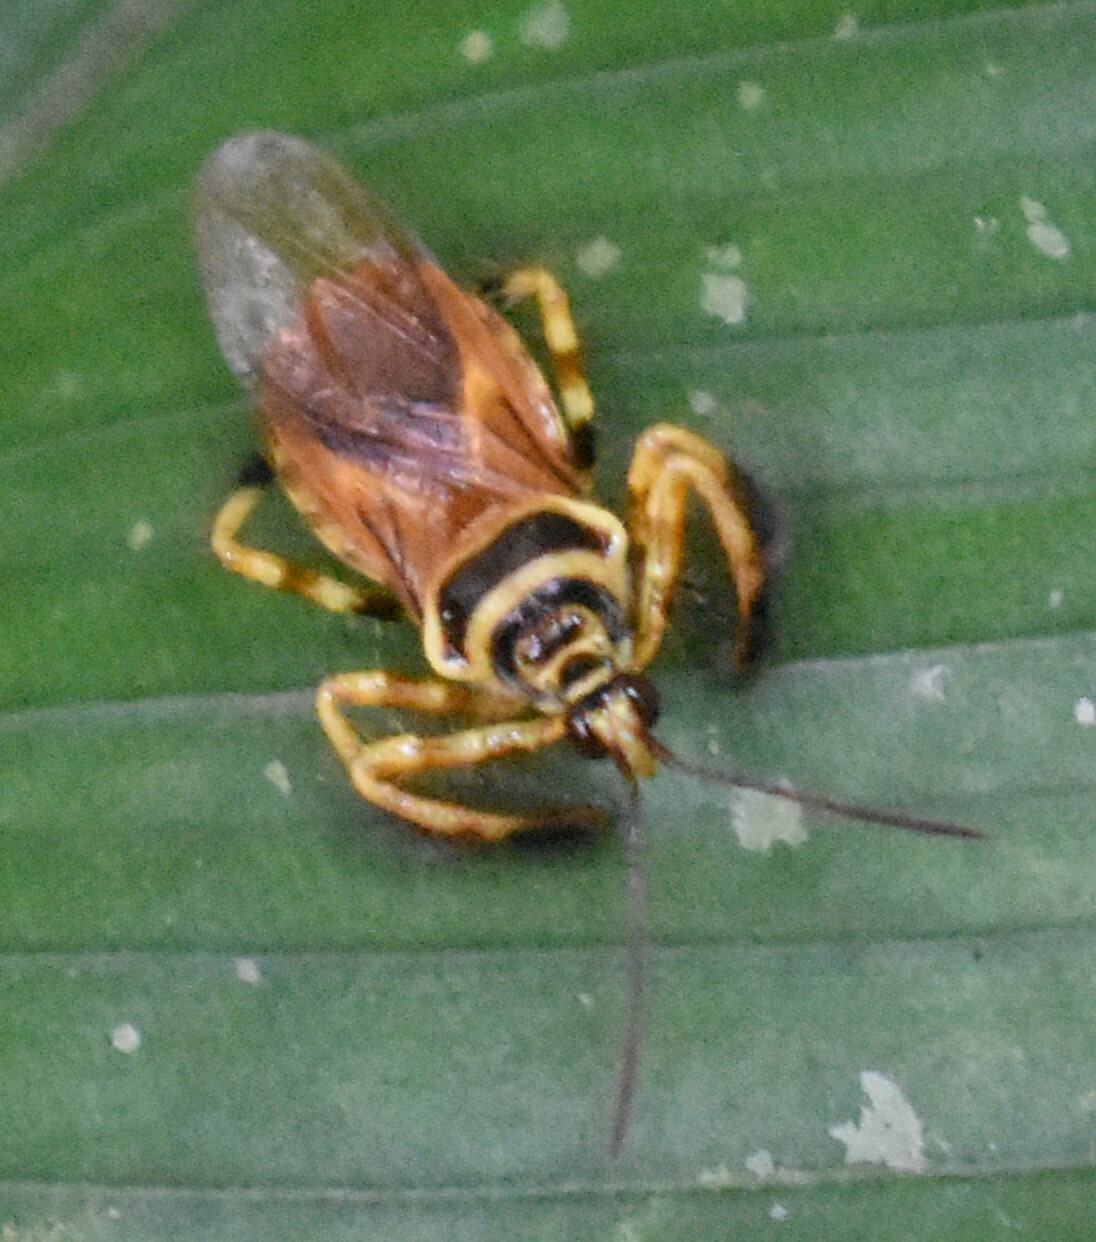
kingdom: Animalia
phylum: Arthropoda
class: Insecta
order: Hemiptera
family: Reduviidae
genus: Agriocoris
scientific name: Agriocoris flavipes
